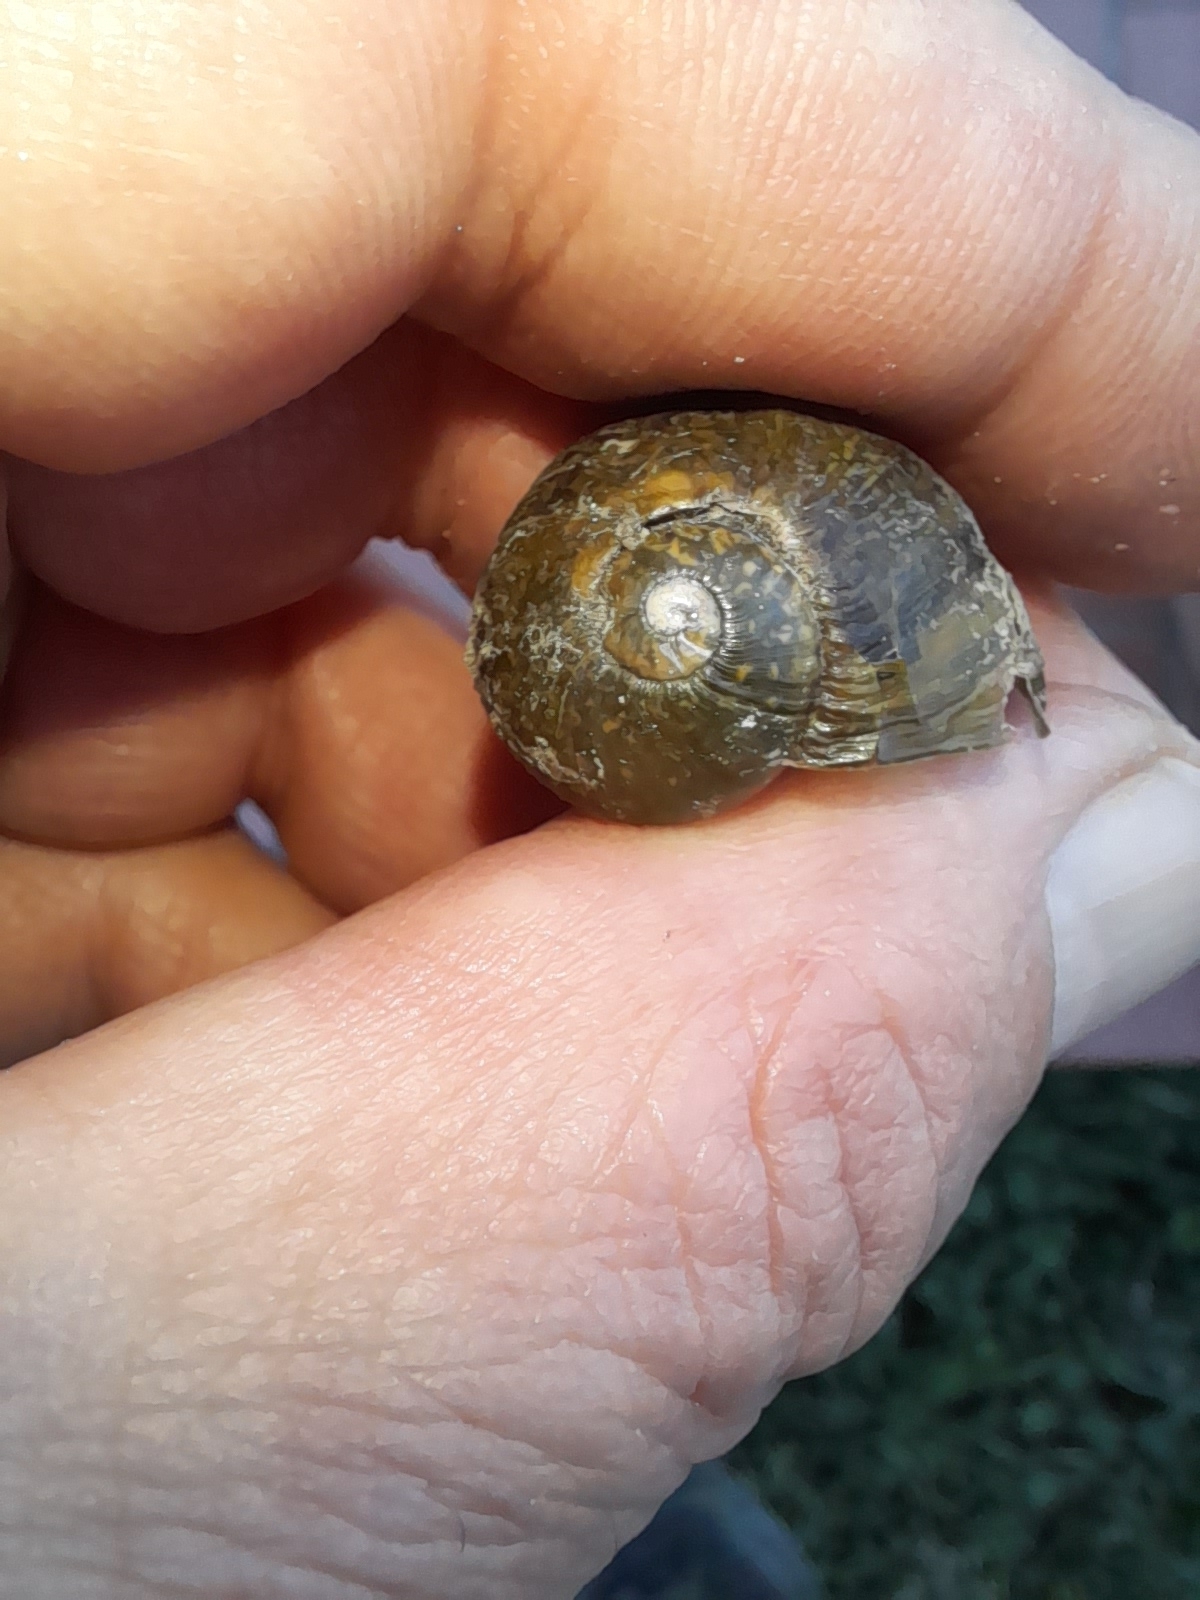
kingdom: Animalia
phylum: Mollusca
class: Gastropoda
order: Stylommatophora
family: Helicidae
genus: Cantareus
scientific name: Cantareus apertus
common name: Green gardensnail
